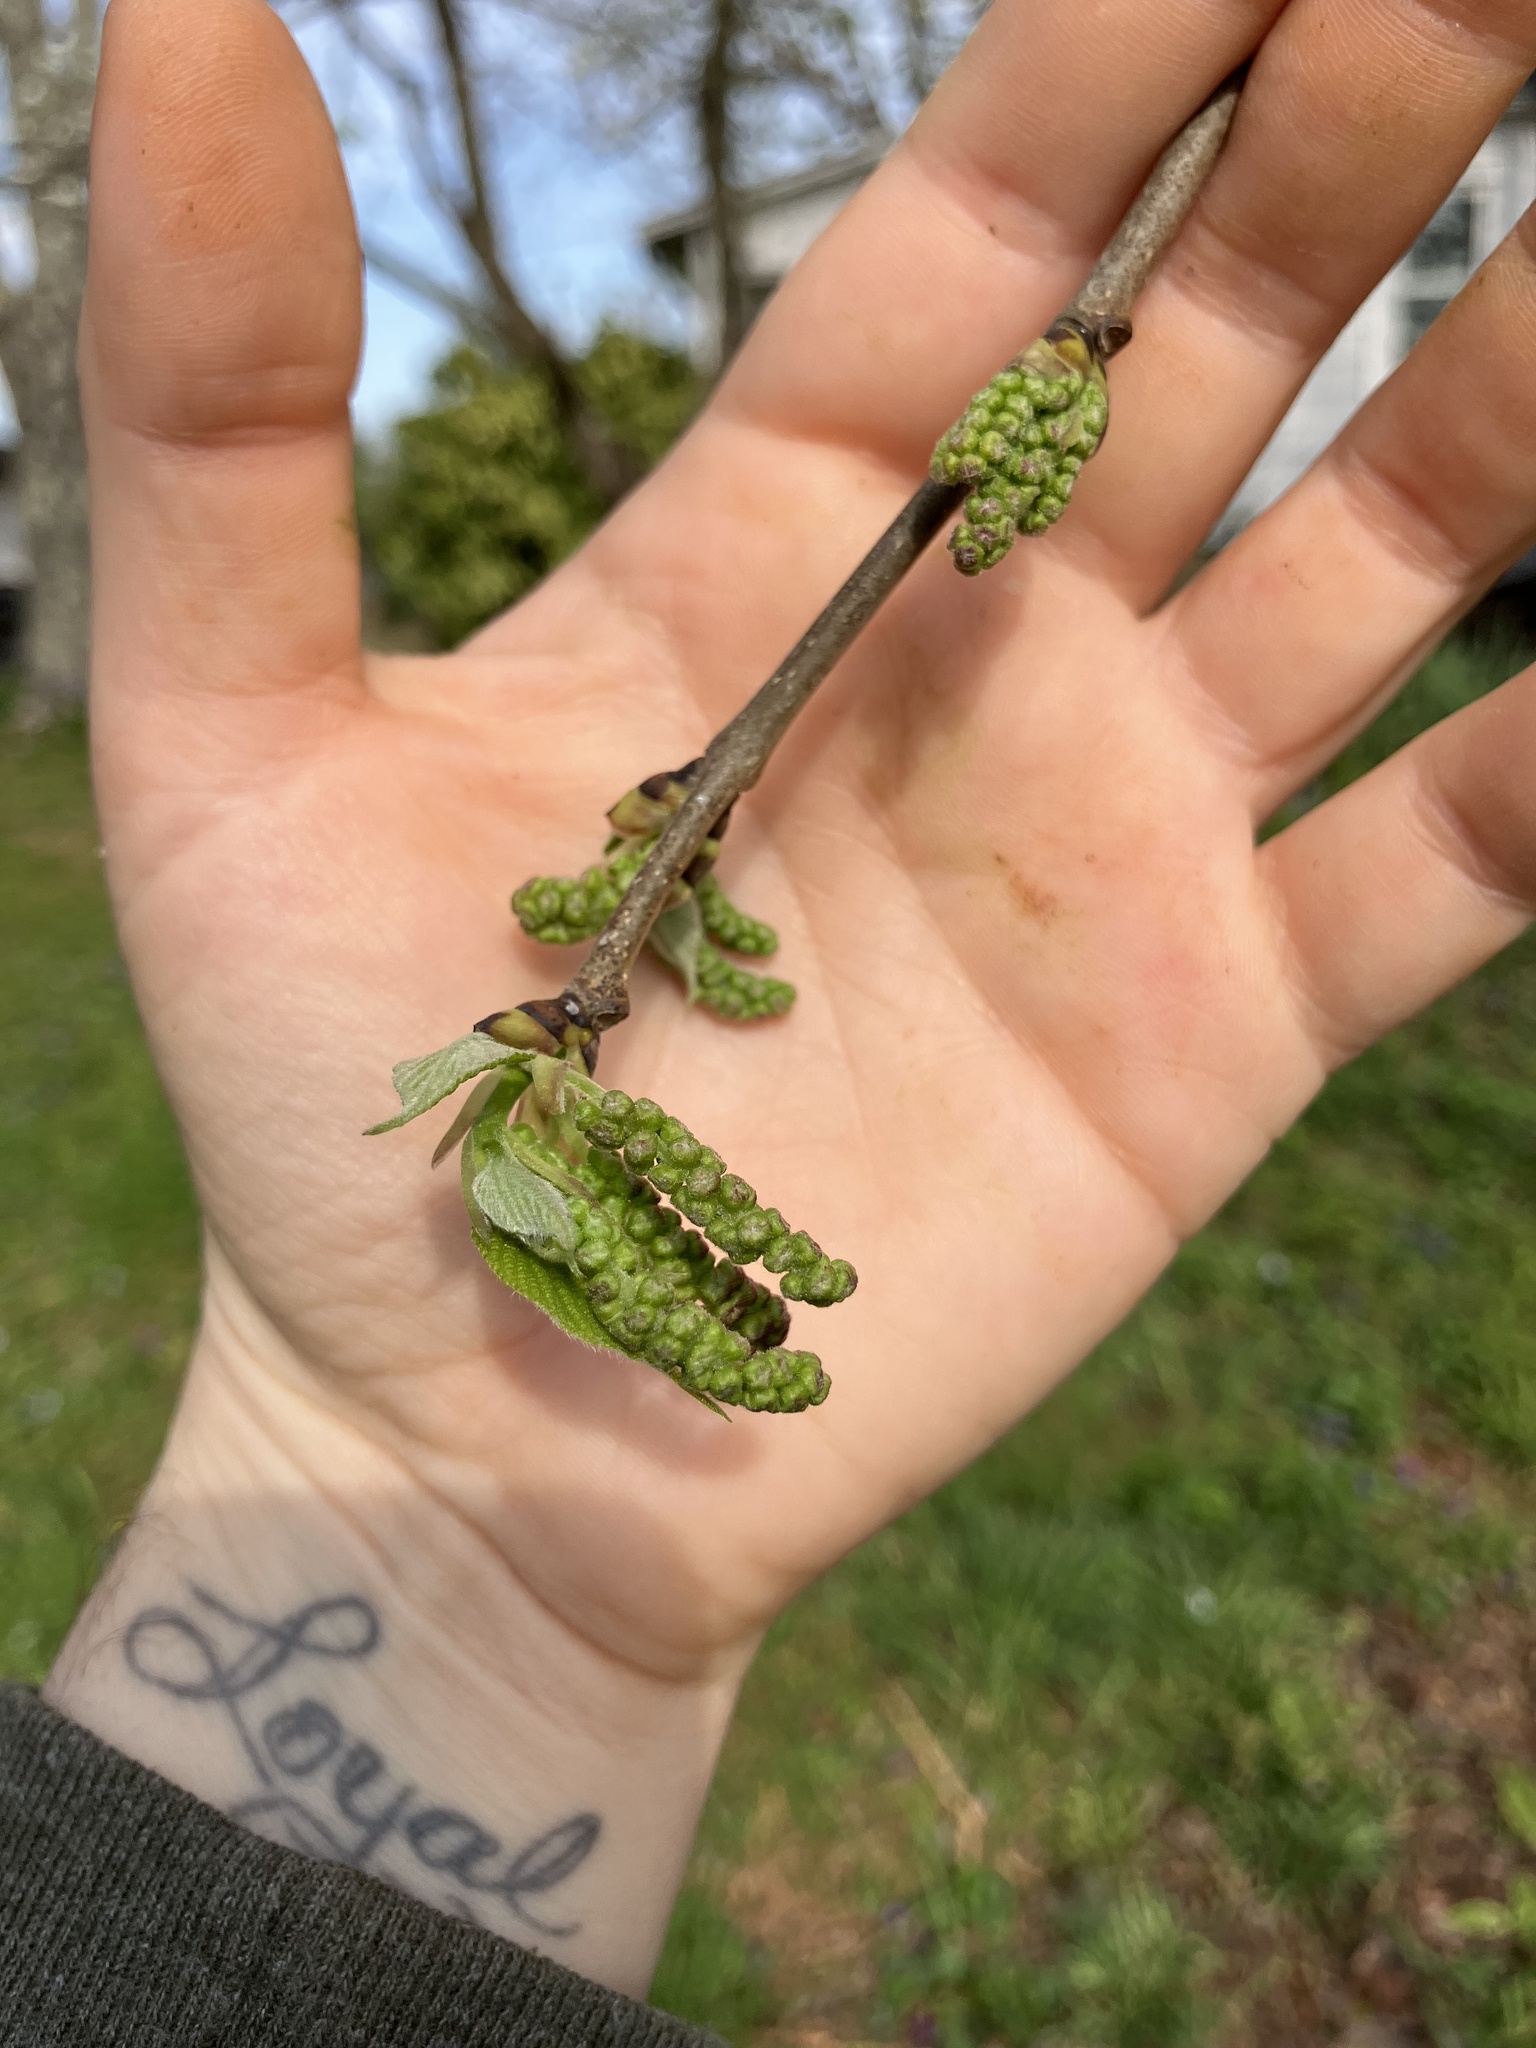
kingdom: Plantae
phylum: Tracheophyta
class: Magnoliopsida
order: Rosales
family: Moraceae
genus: Morus
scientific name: Morus rubra
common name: Red mulberry
